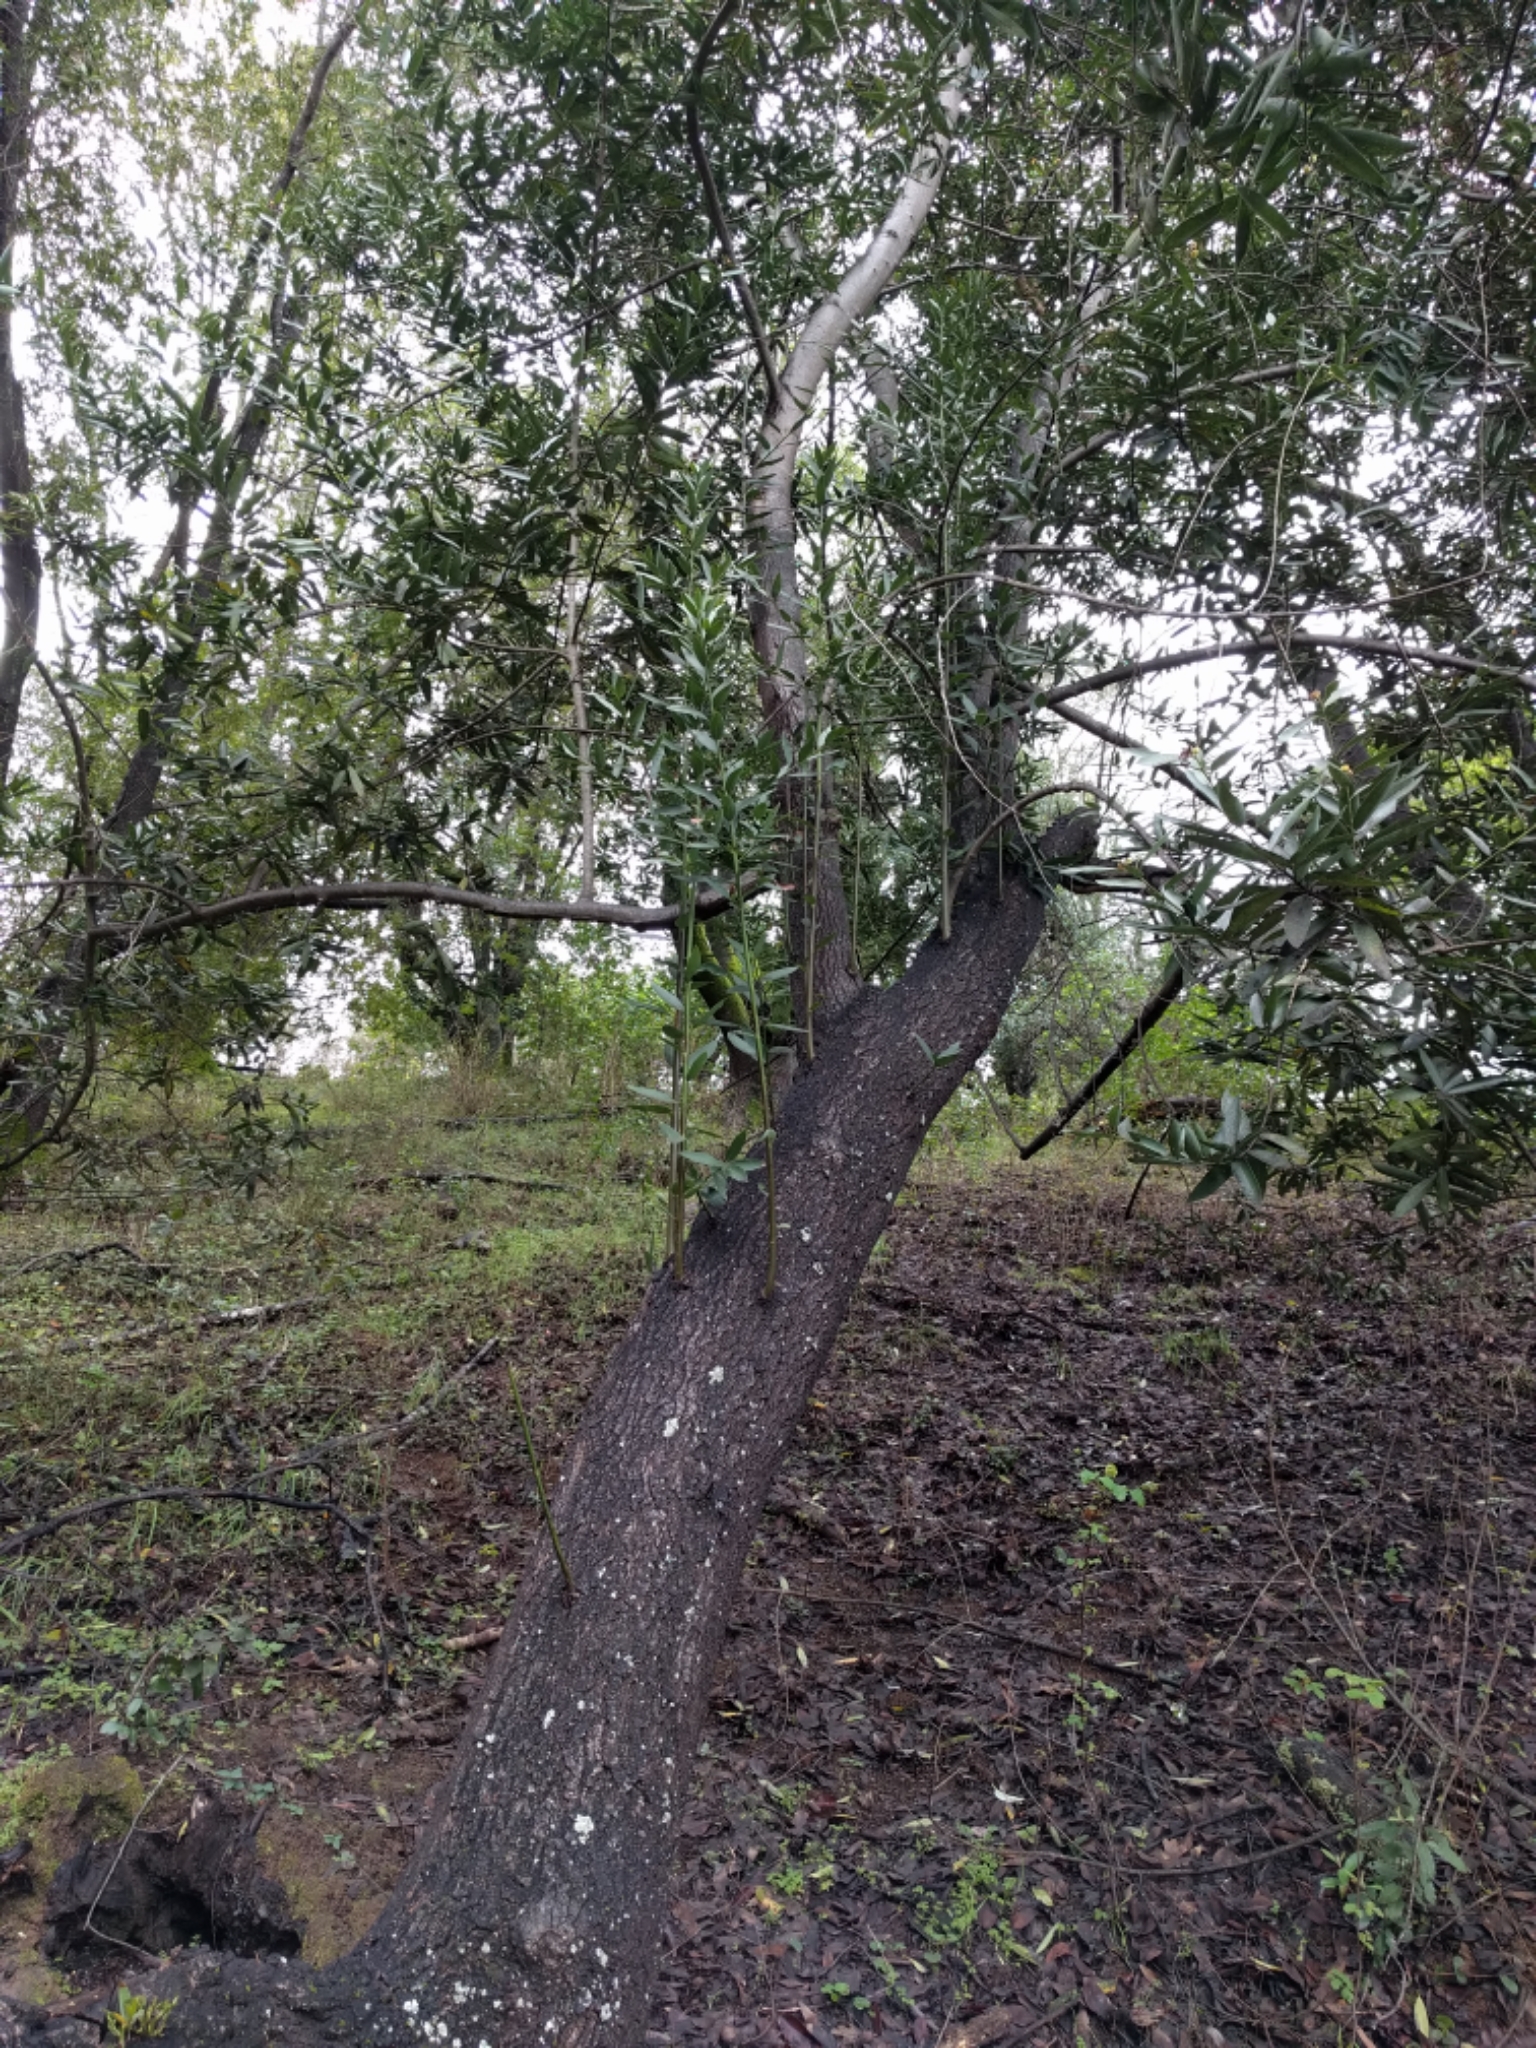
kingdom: Plantae
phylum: Tracheophyta
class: Magnoliopsida
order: Laurales
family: Lauraceae
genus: Umbellularia
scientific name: Umbellularia californica
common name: California bay
